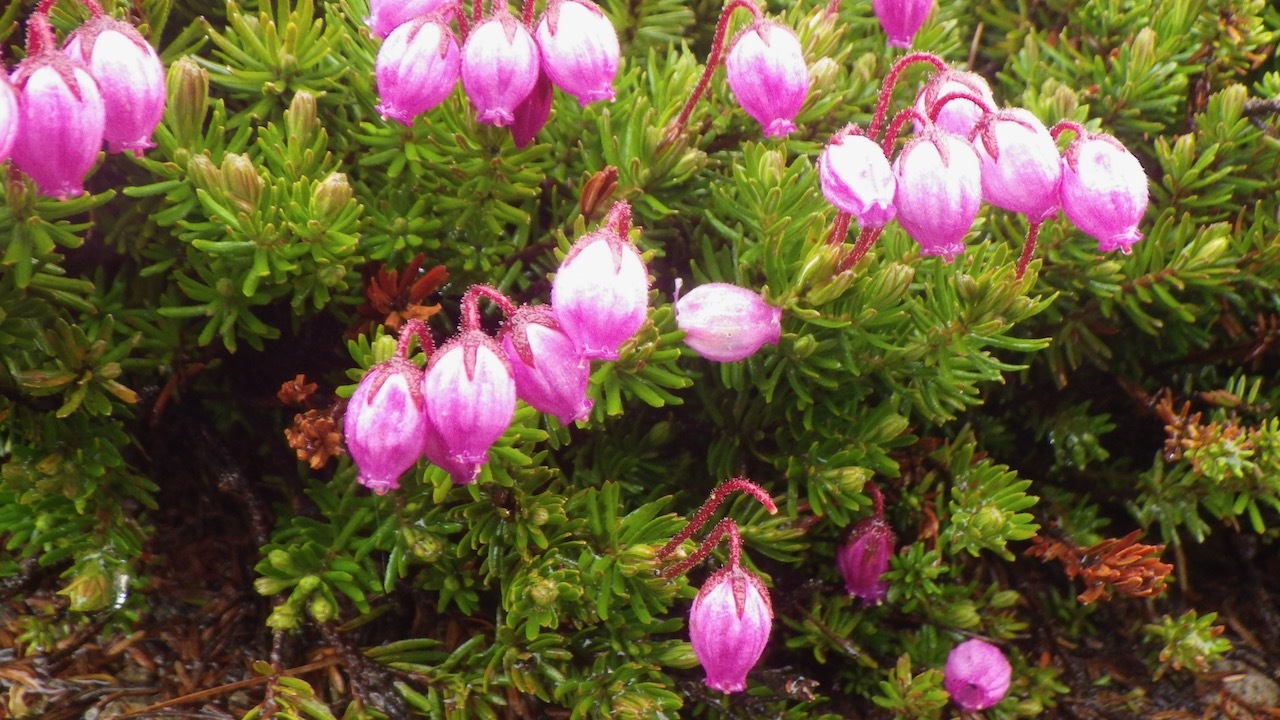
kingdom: Plantae
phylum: Tracheophyta
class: Magnoliopsida
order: Ericales
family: Ericaceae
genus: Phyllodoce
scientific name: Phyllodoce caerulea
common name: Blue heath
